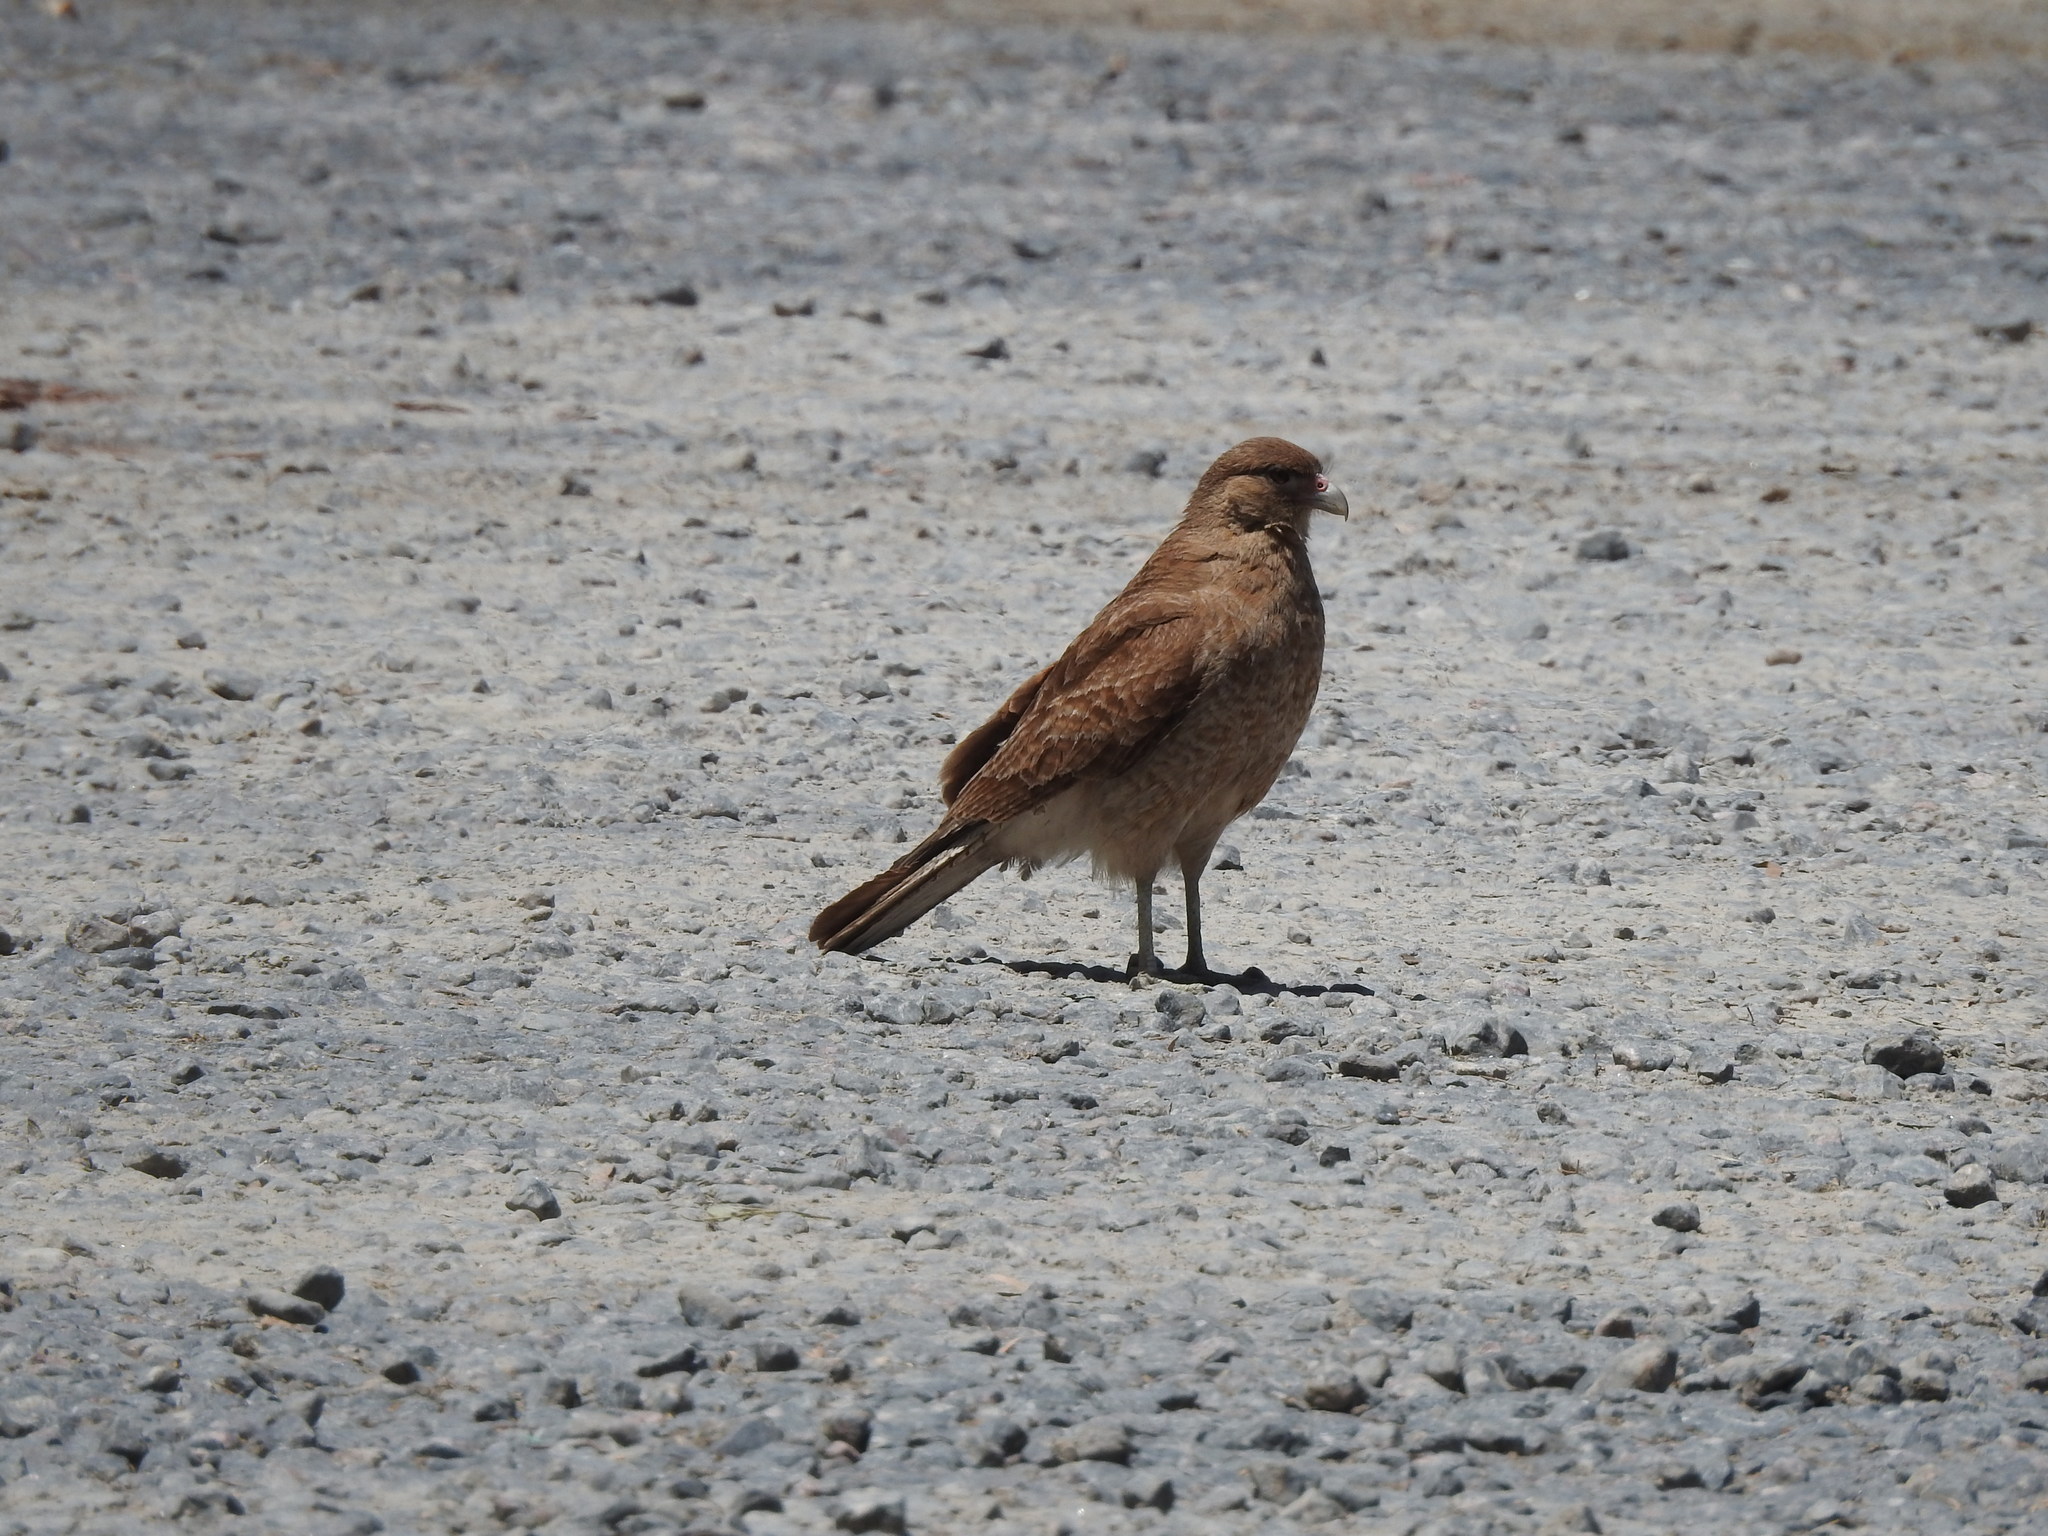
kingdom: Animalia
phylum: Chordata
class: Aves
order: Falconiformes
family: Falconidae
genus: Daptrius
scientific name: Daptrius
